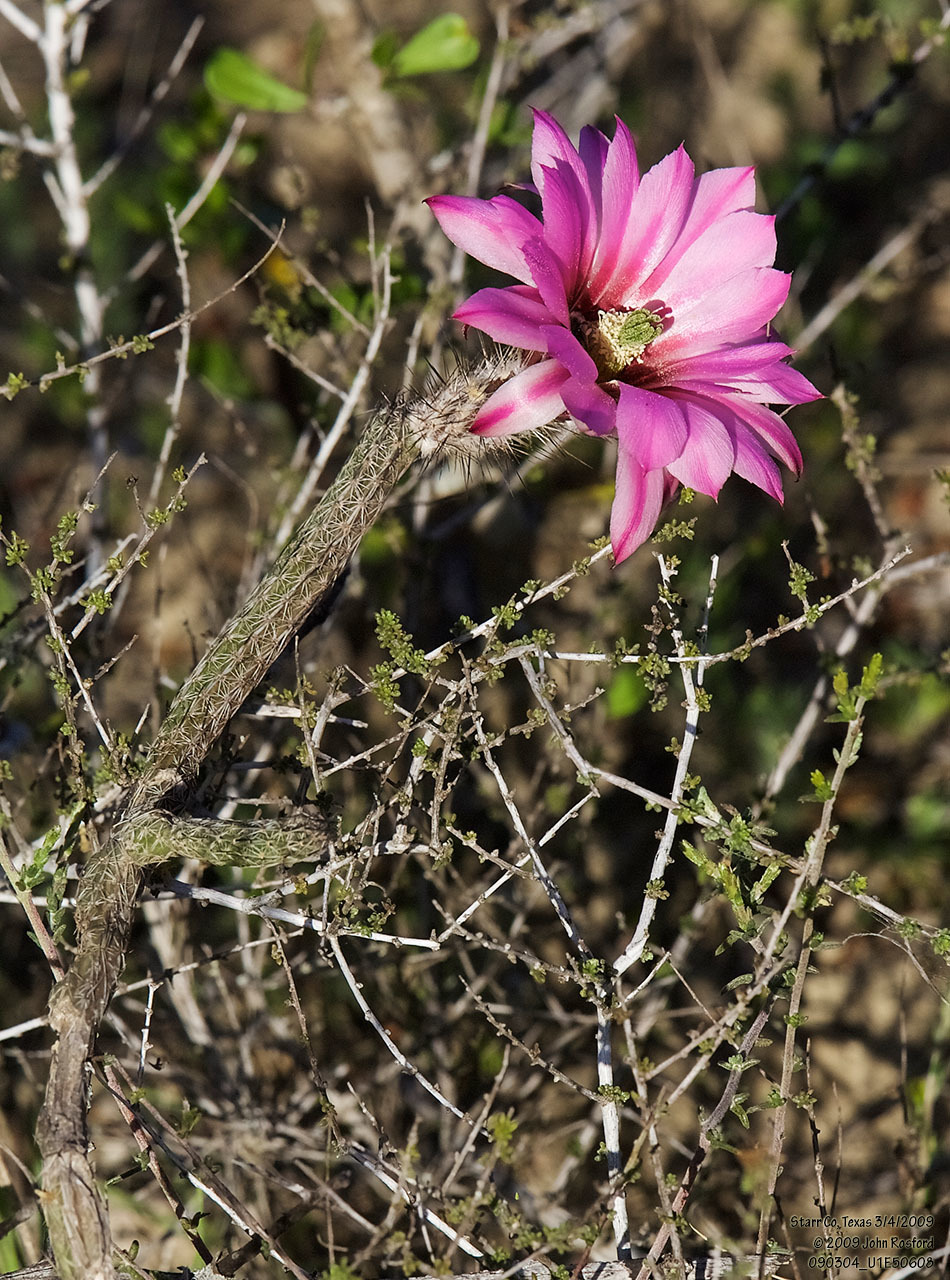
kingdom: Plantae
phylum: Tracheophyta
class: Magnoliopsida
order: Caryophyllales
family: Cactaceae
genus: Echinocereus
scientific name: Echinocereus poselgeri
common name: Dahlia apple cactus
